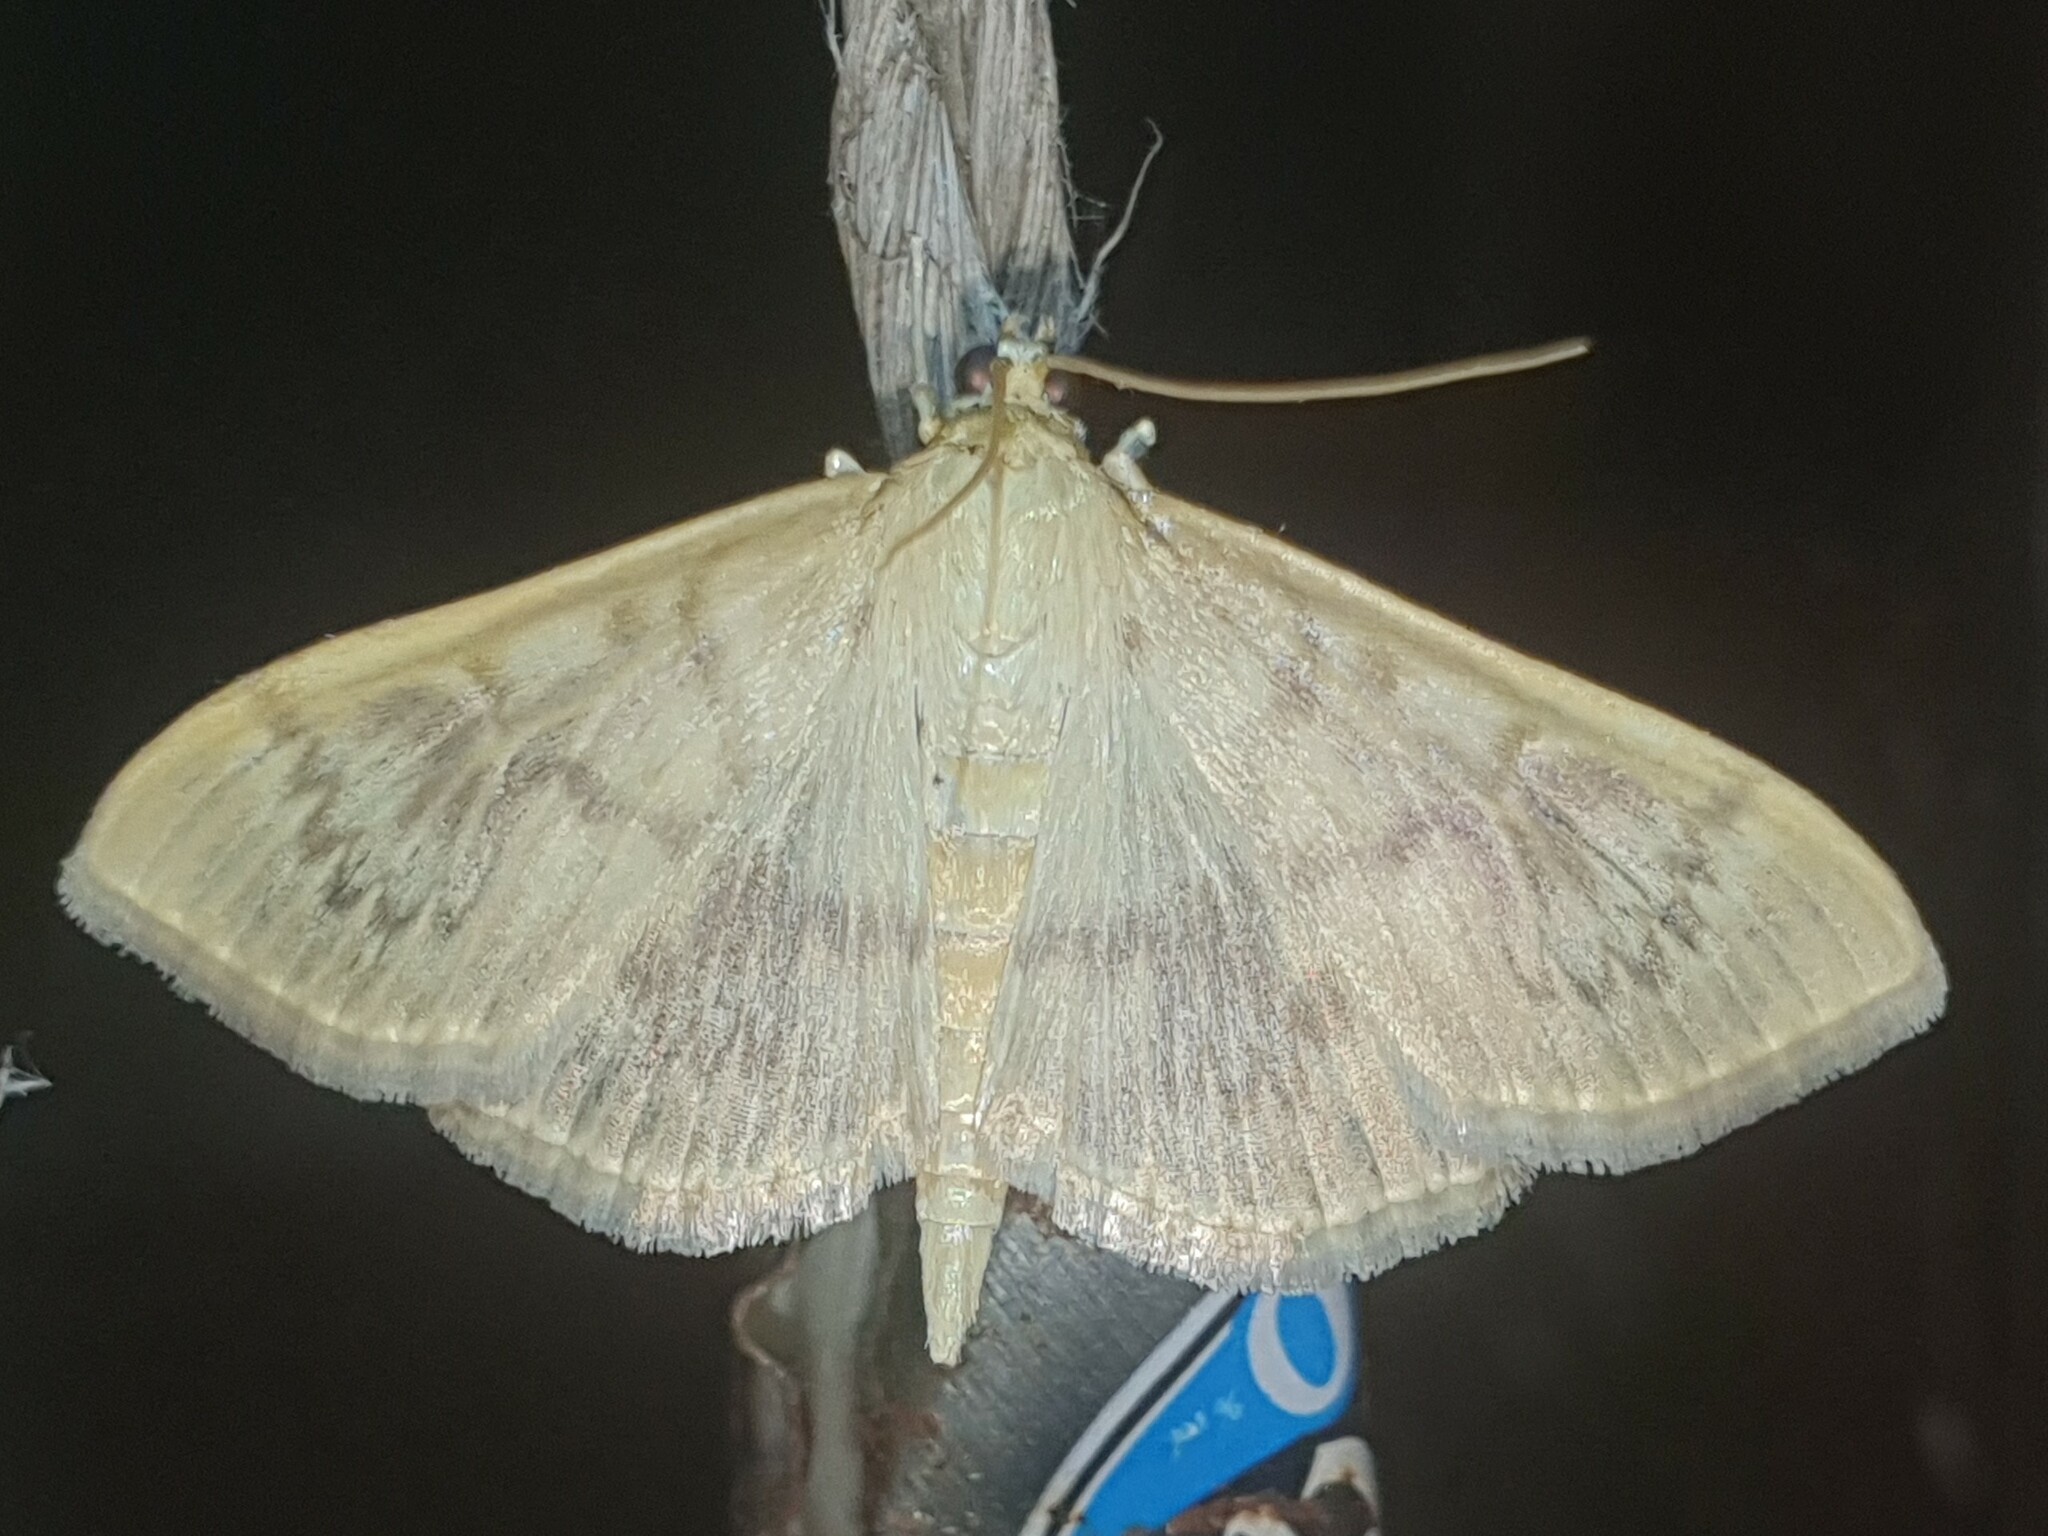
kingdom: Animalia
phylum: Arthropoda
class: Insecta
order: Lepidoptera
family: Crambidae
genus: Patania
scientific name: Patania ruralis
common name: Mother of pearl
